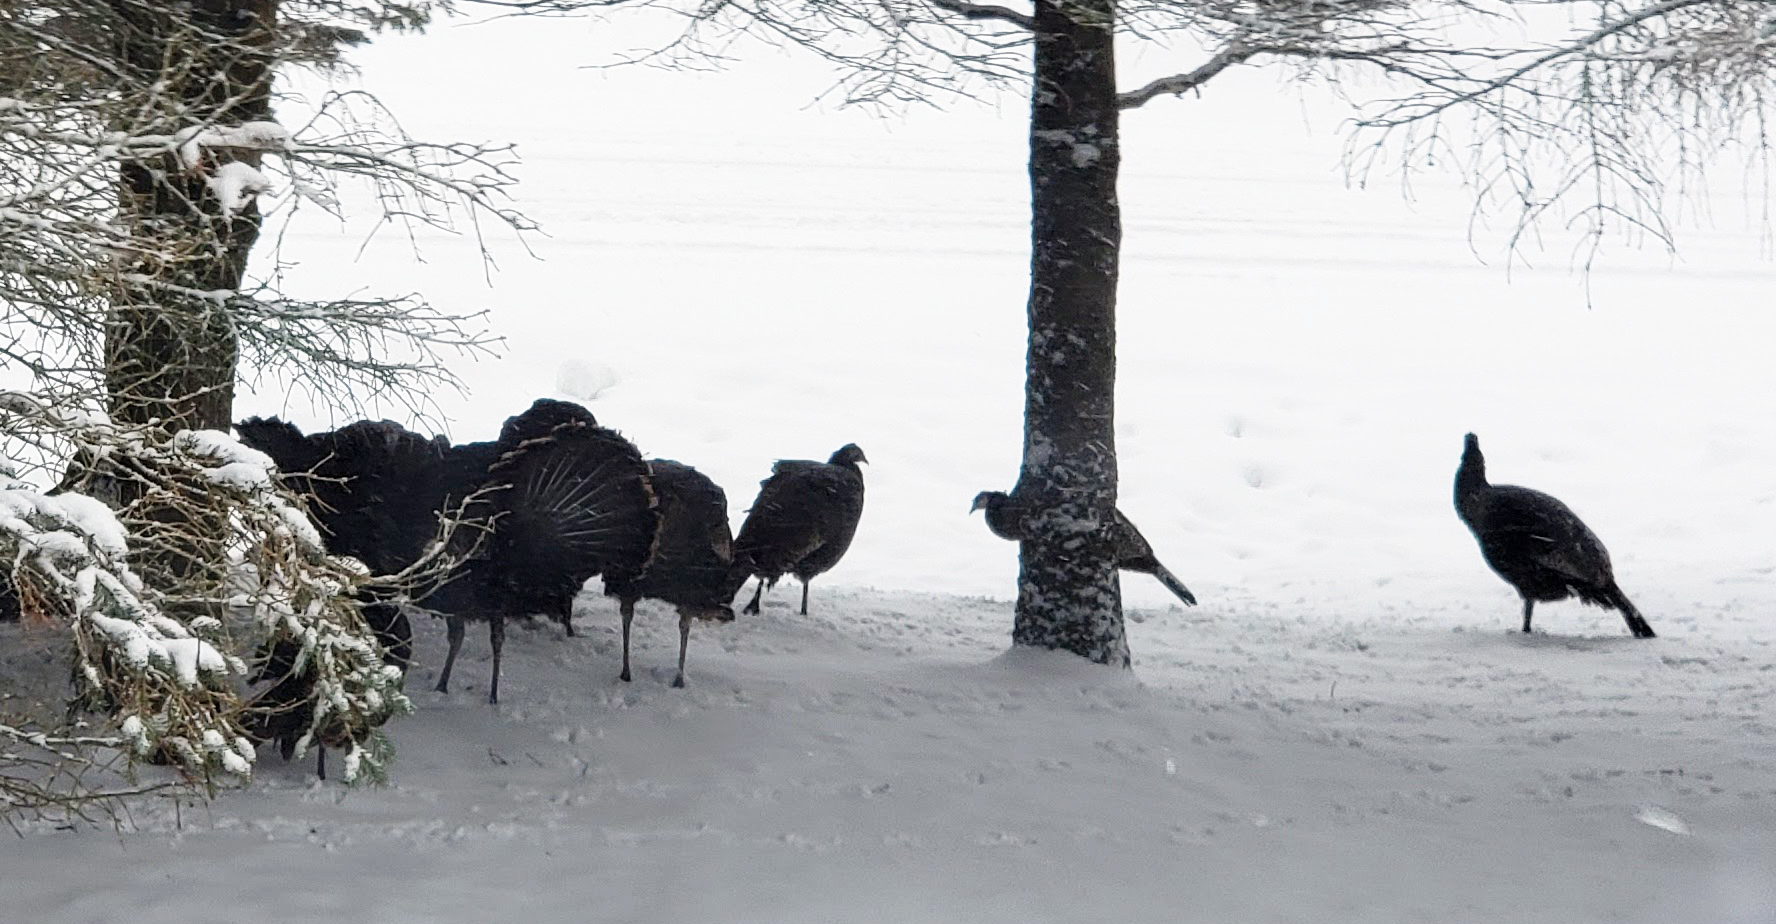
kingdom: Animalia
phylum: Chordata
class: Aves
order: Galliformes
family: Phasianidae
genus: Meleagris
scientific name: Meleagris gallopavo
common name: Wild turkey
